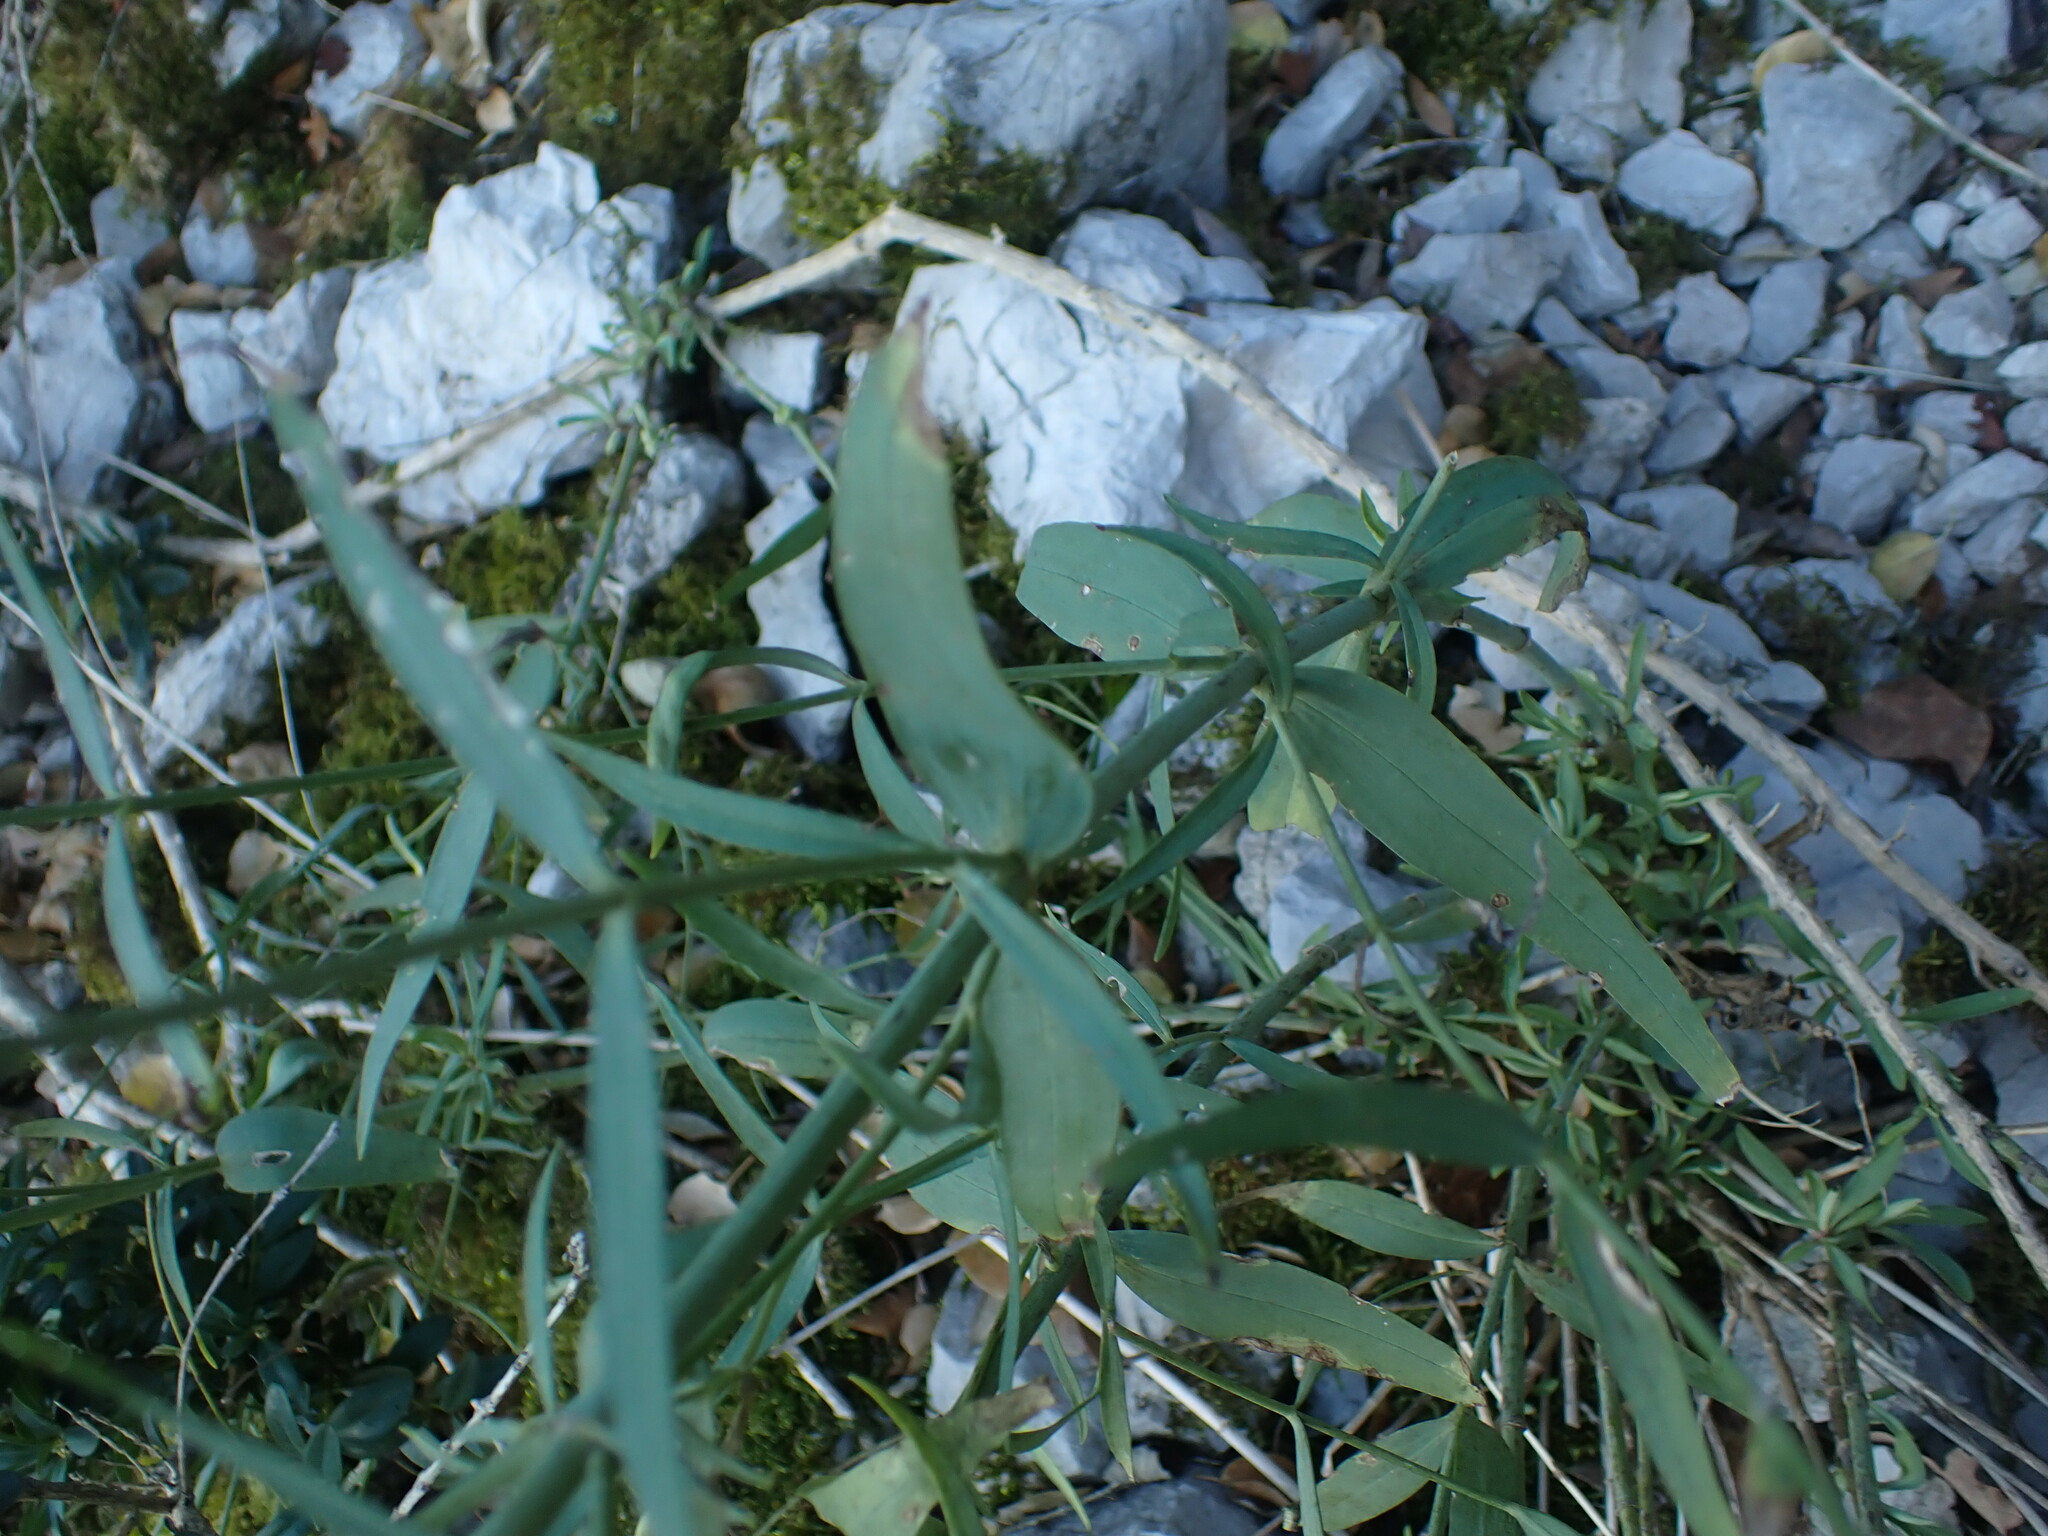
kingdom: Plantae
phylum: Tracheophyta
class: Magnoliopsida
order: Dipsacales
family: Caprifoliaceae
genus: Centranthus
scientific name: Centranthus lecoqii
